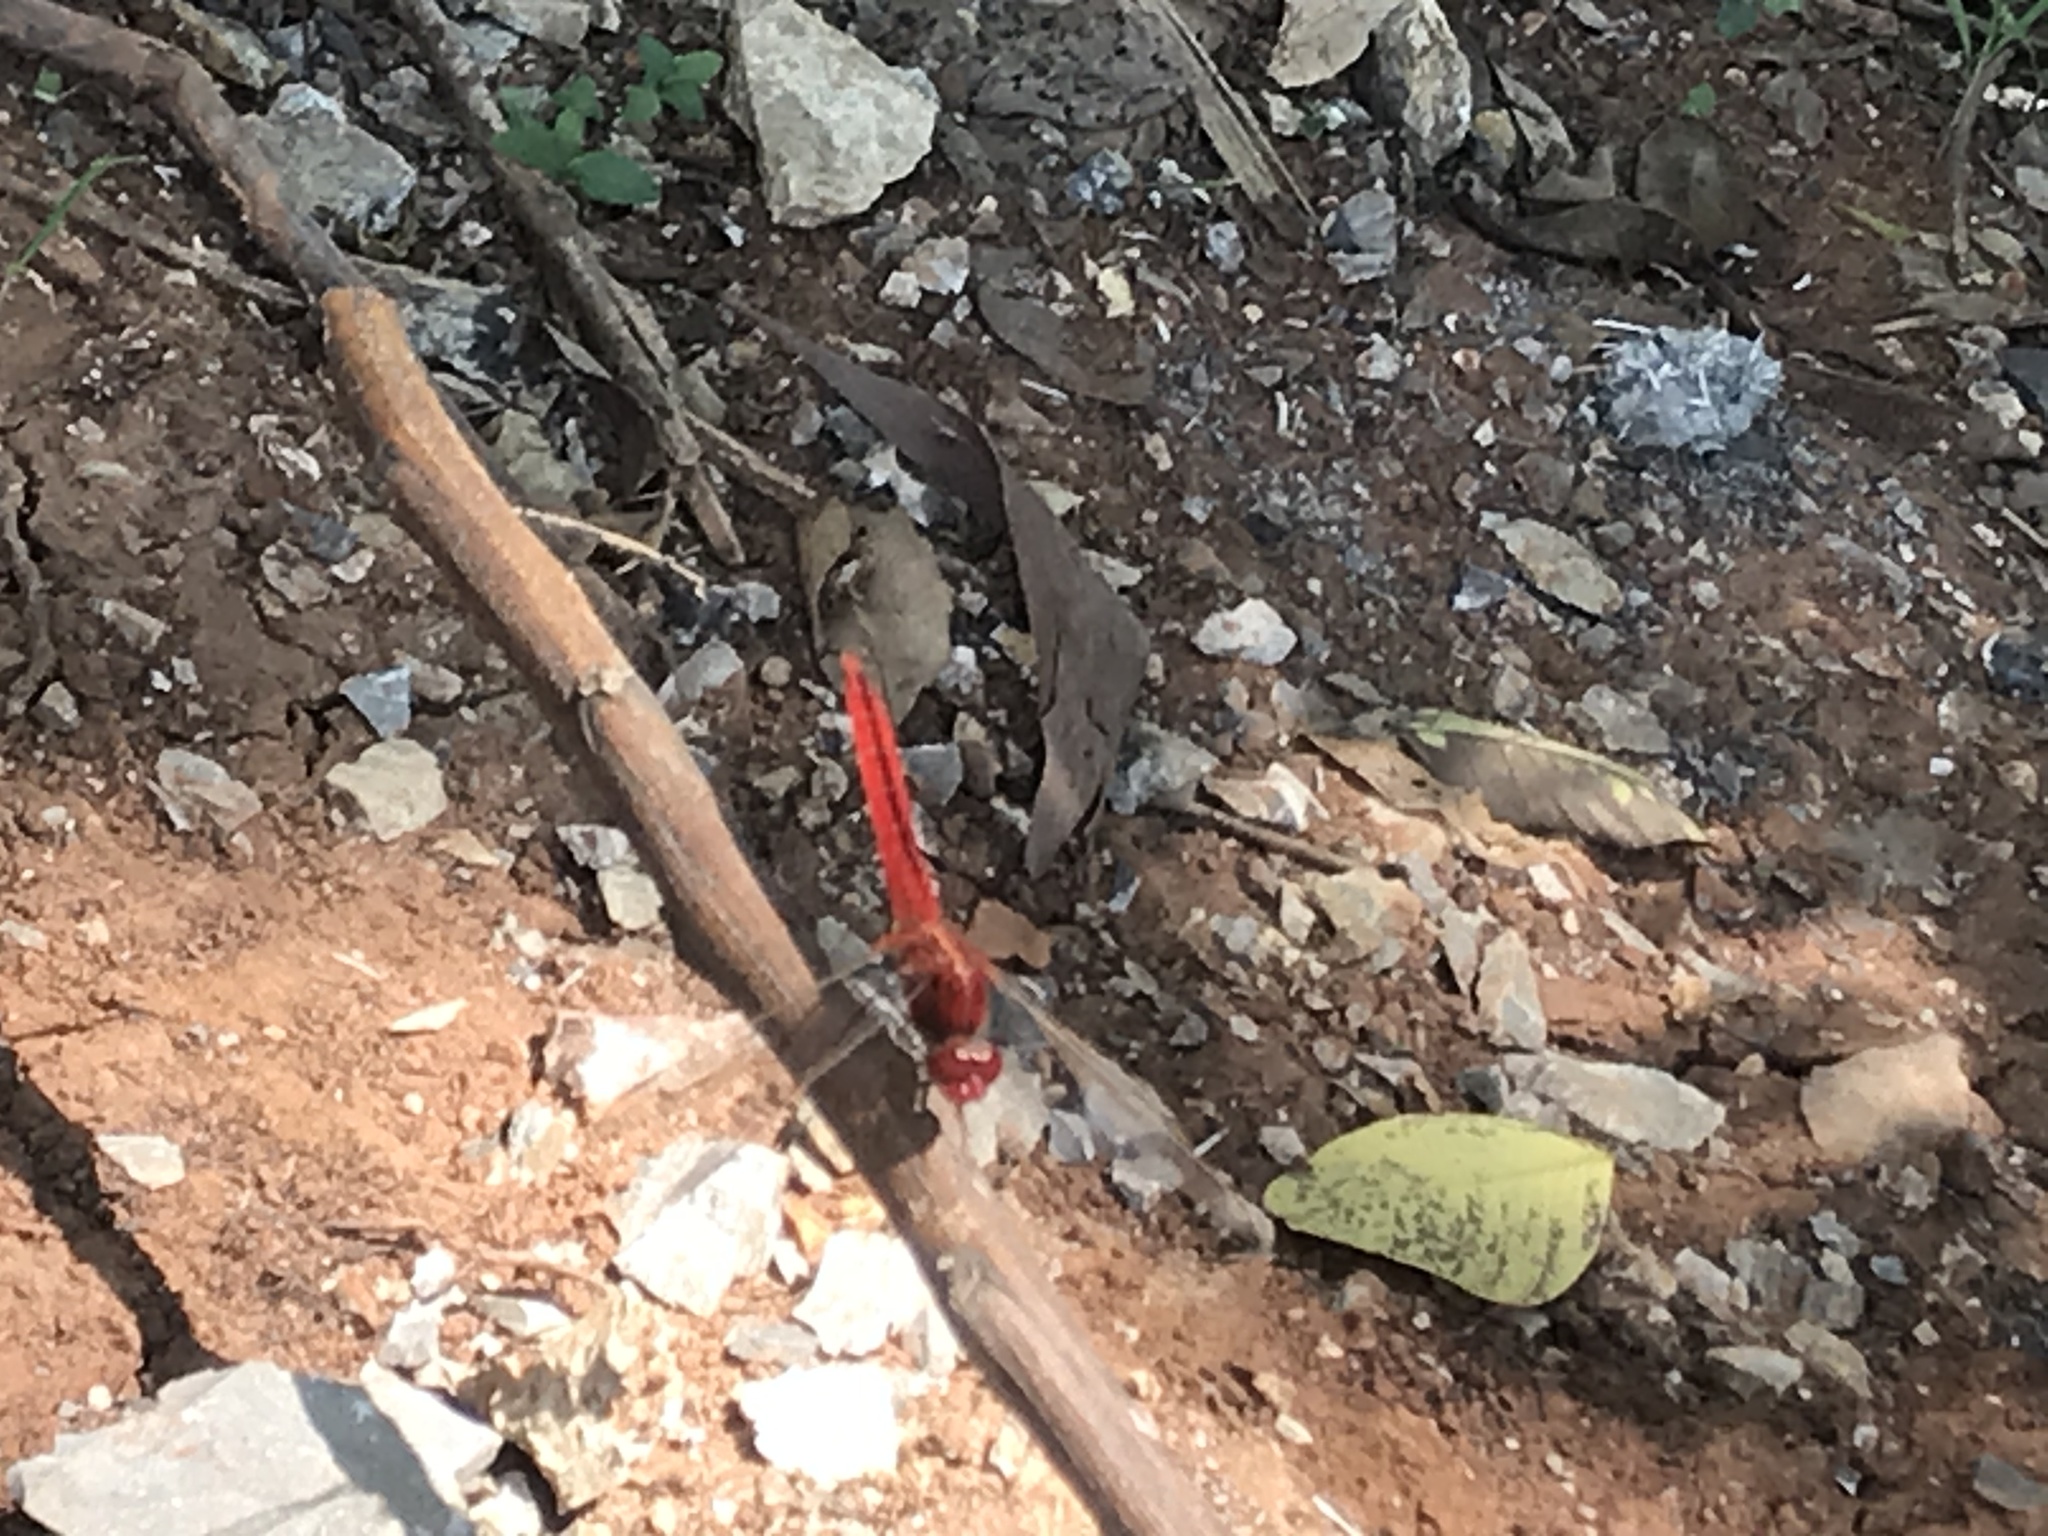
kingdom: Animalia
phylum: Arthropoda
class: Insecta
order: Odonata
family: Libellulidae
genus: Crocothemis
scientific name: Crocothemis servilia
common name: Scarlet skimmer
